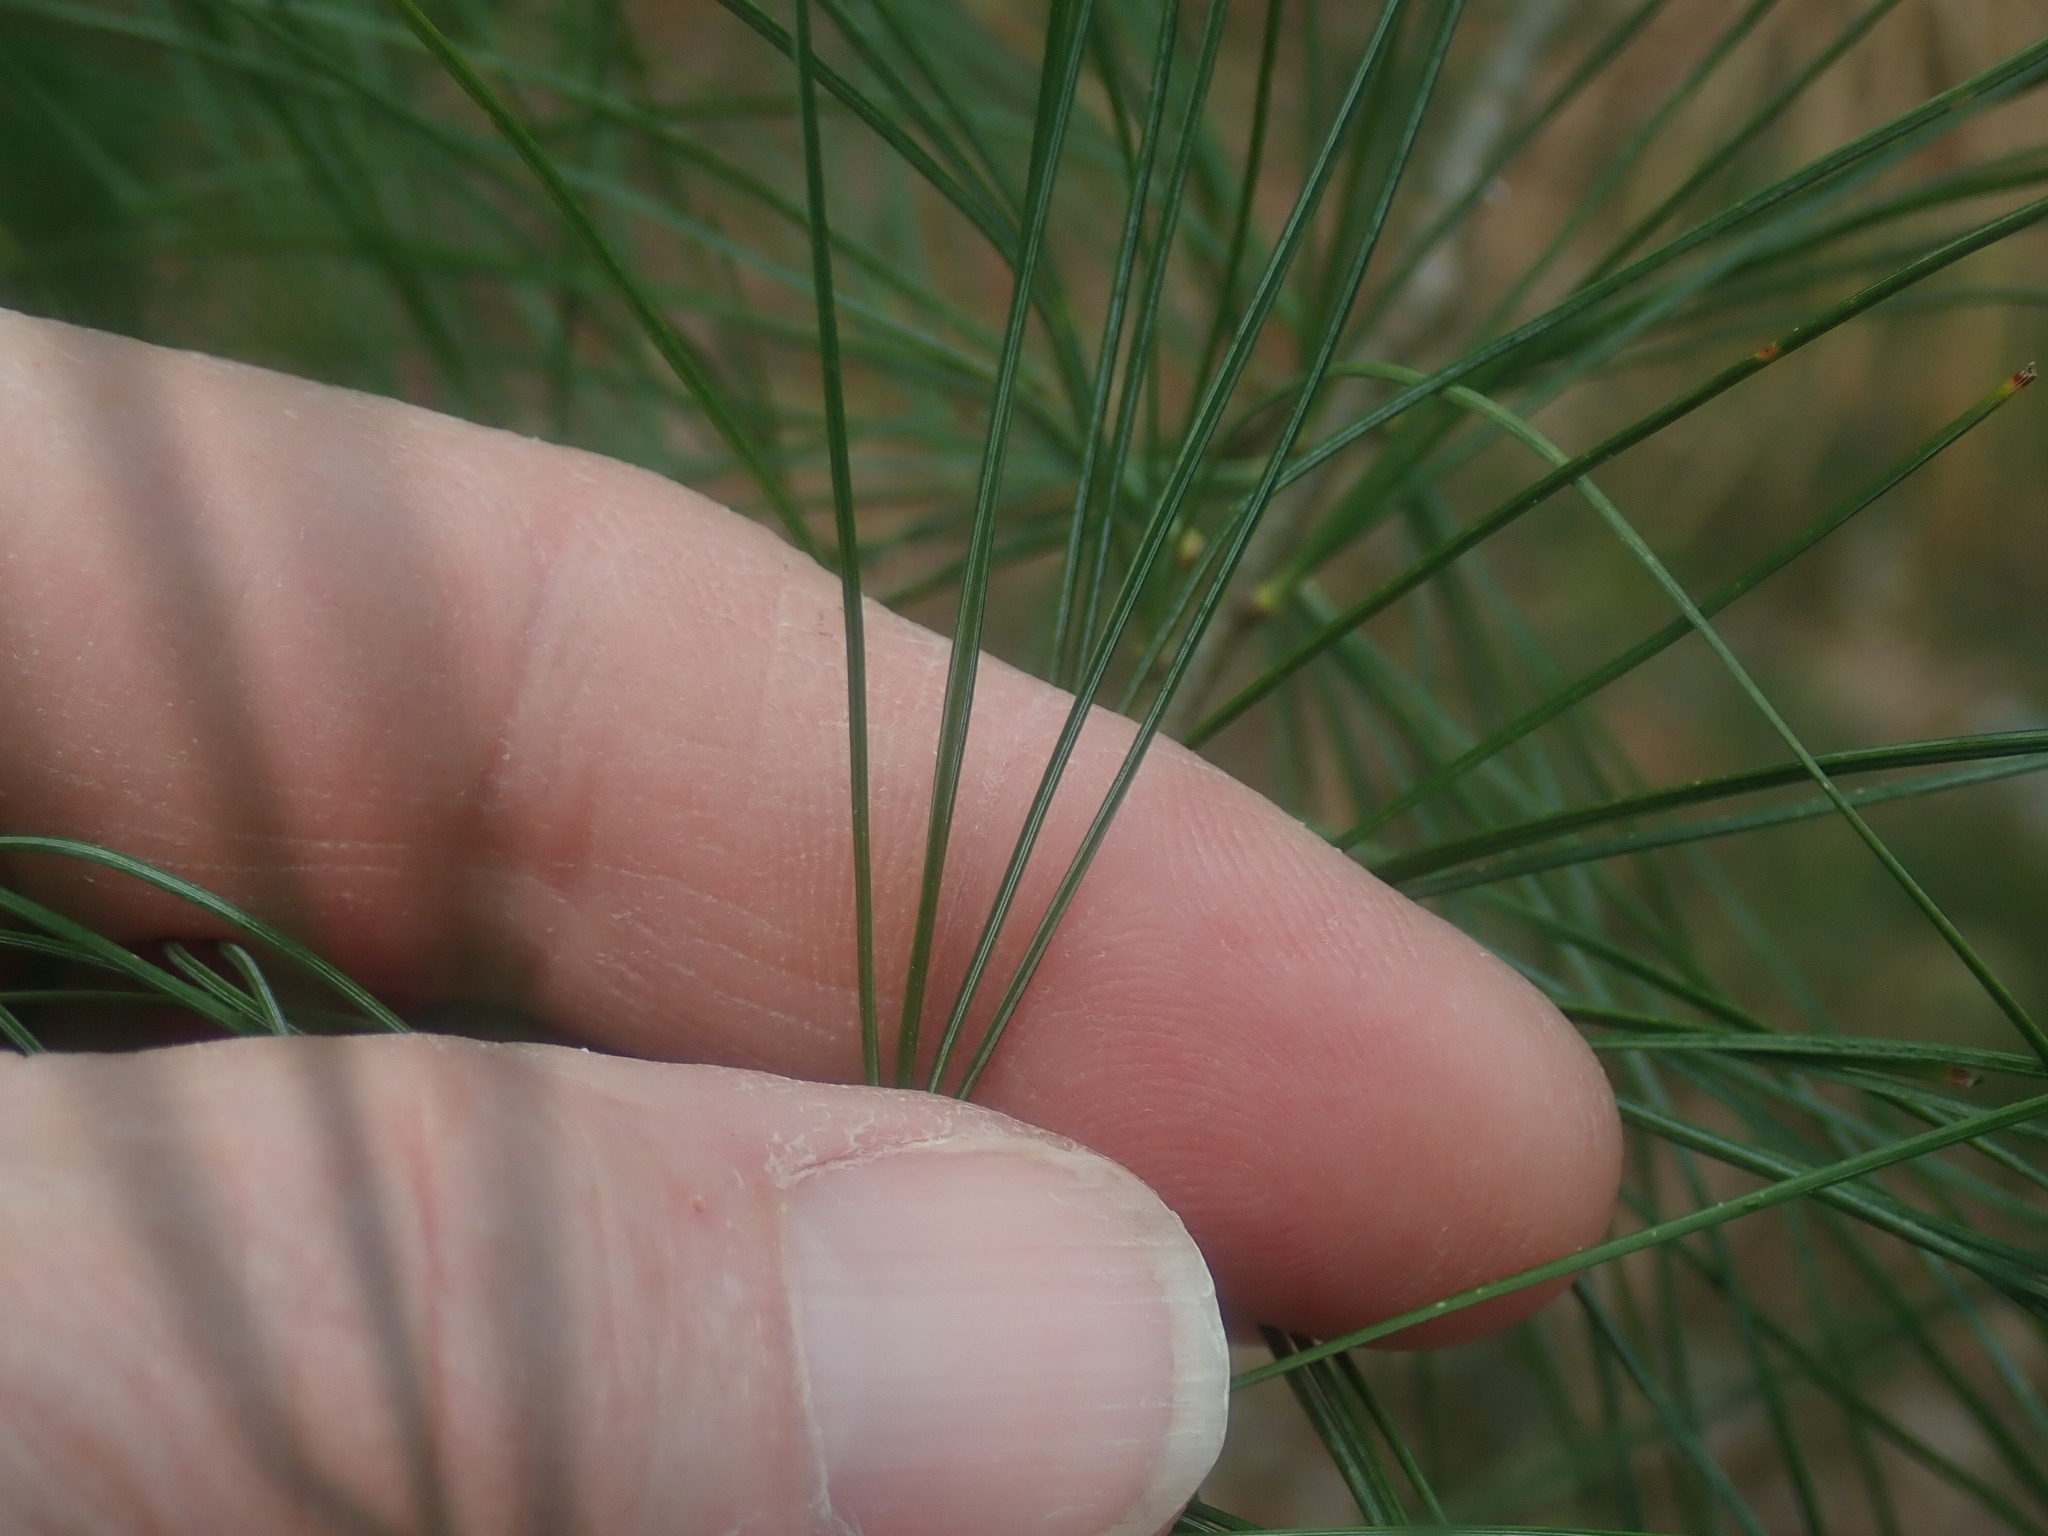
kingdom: Plantae
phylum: Tracheophyta
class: Pinopsida
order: Pinales
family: Pinaceae
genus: Pinus
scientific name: Pinus strobus
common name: Weymouth pine
